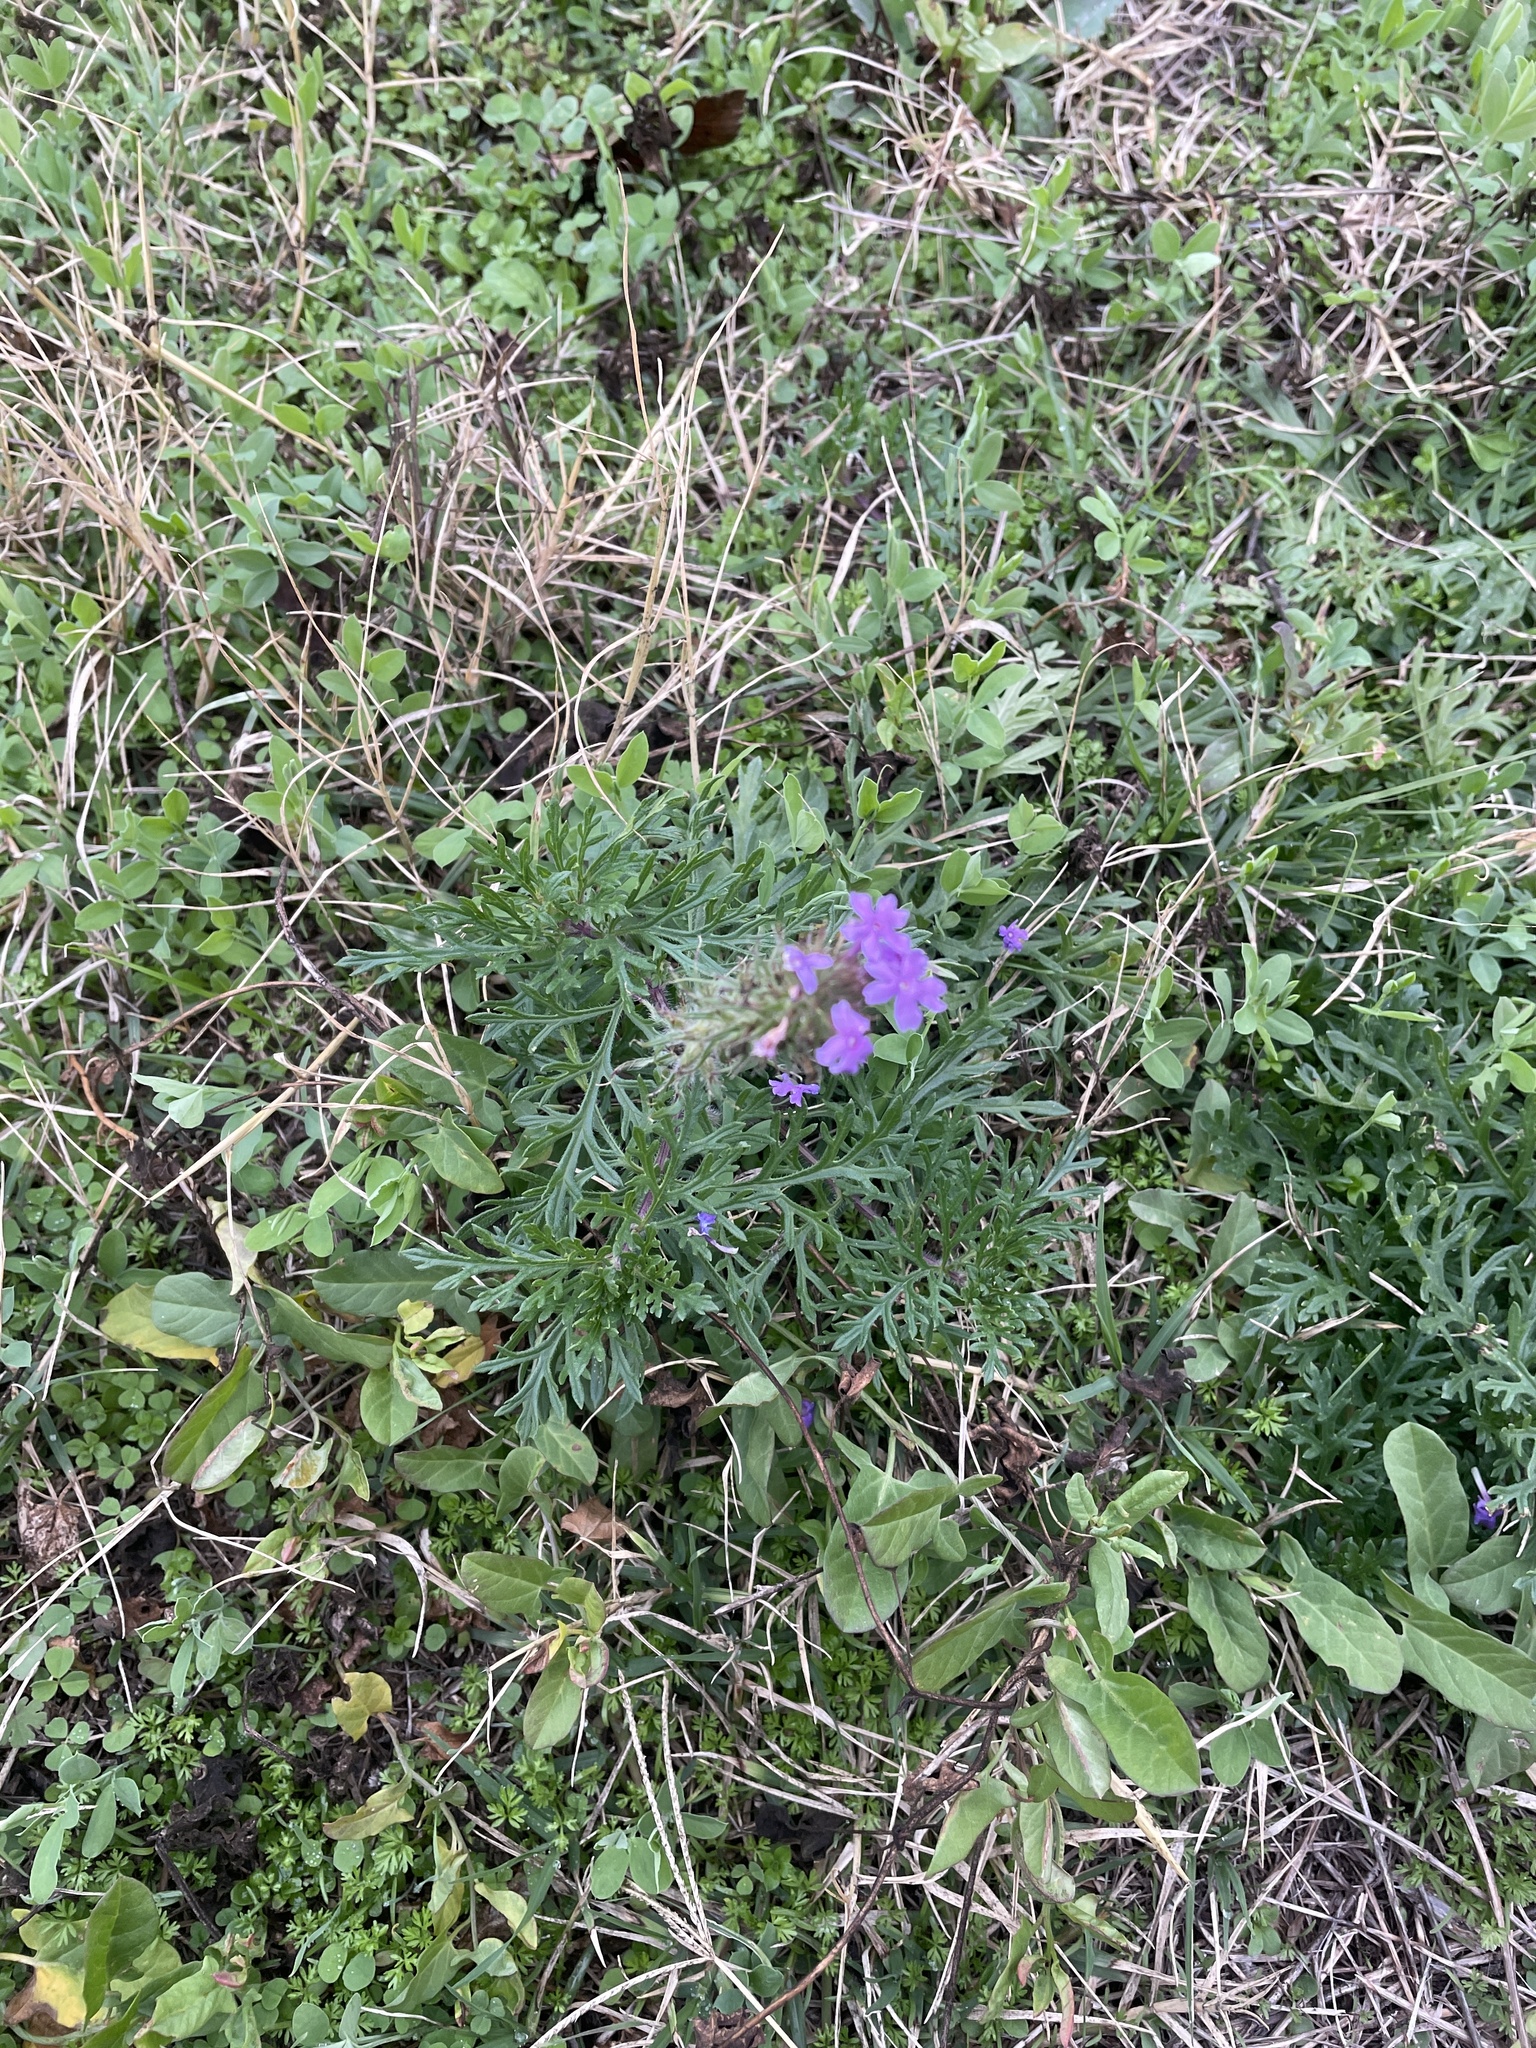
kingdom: Plantae
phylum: Tracheophyta
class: Magnoliopsida
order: Lamiales
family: Verbenaceae
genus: Verbena
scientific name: Verbena bipinnatifida
